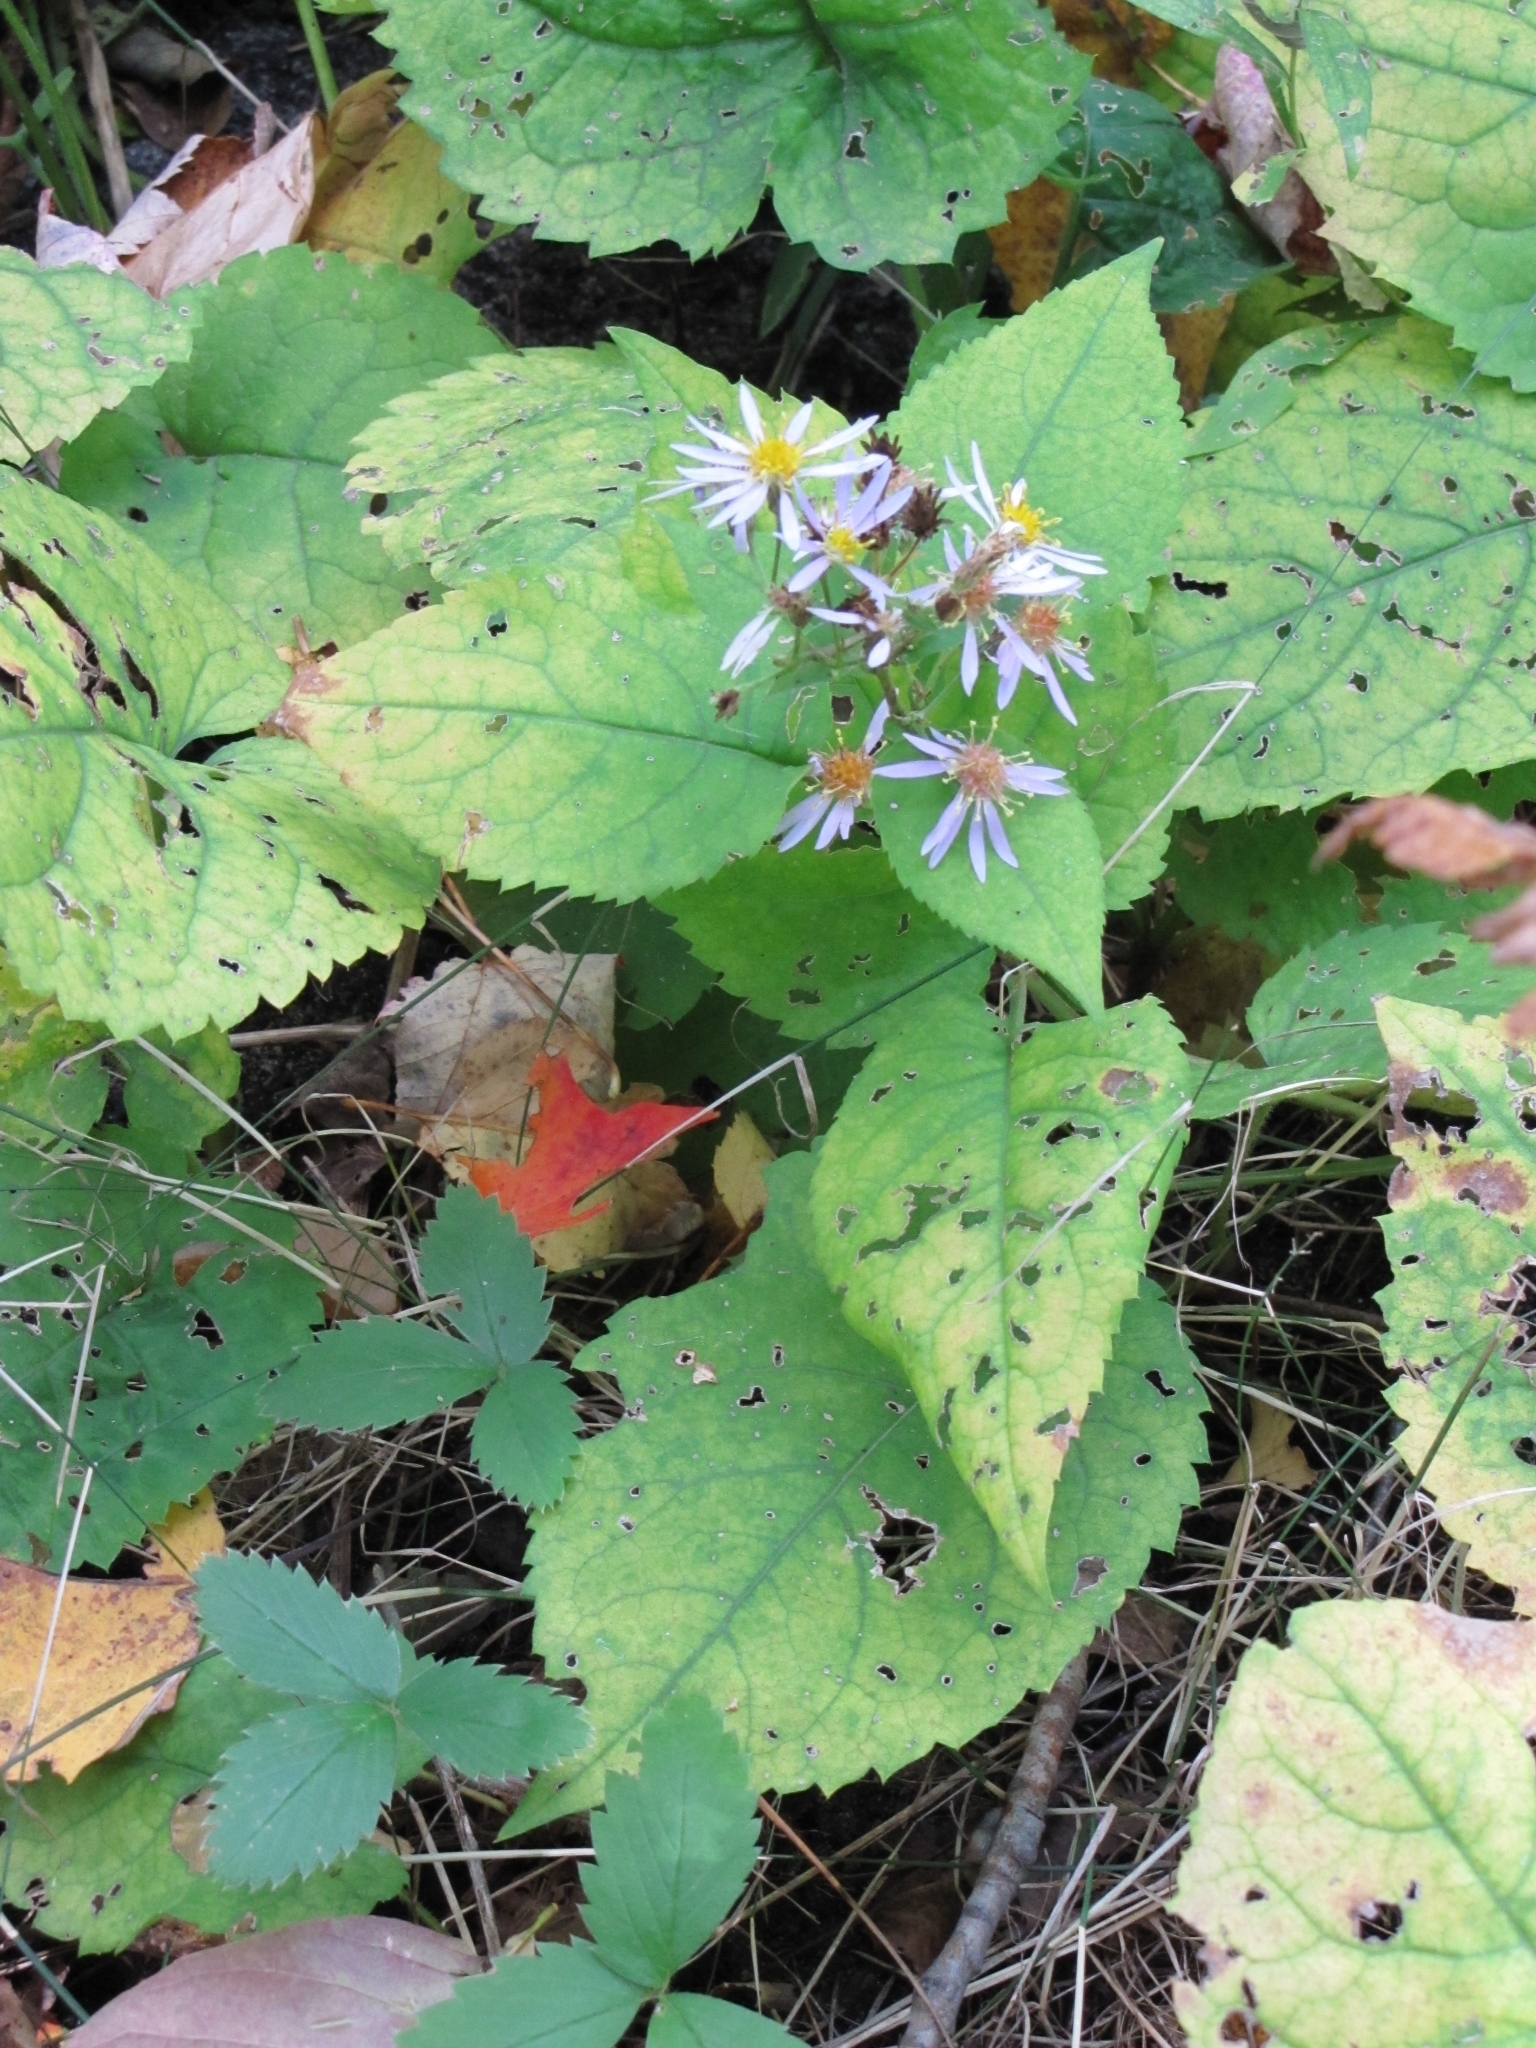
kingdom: Plantae
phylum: Tracheophyta
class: Magnoliopsida
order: Asterales
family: Asteraceae
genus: Eurybia
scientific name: Eurybia macrophylla
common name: Big-leaved aster
